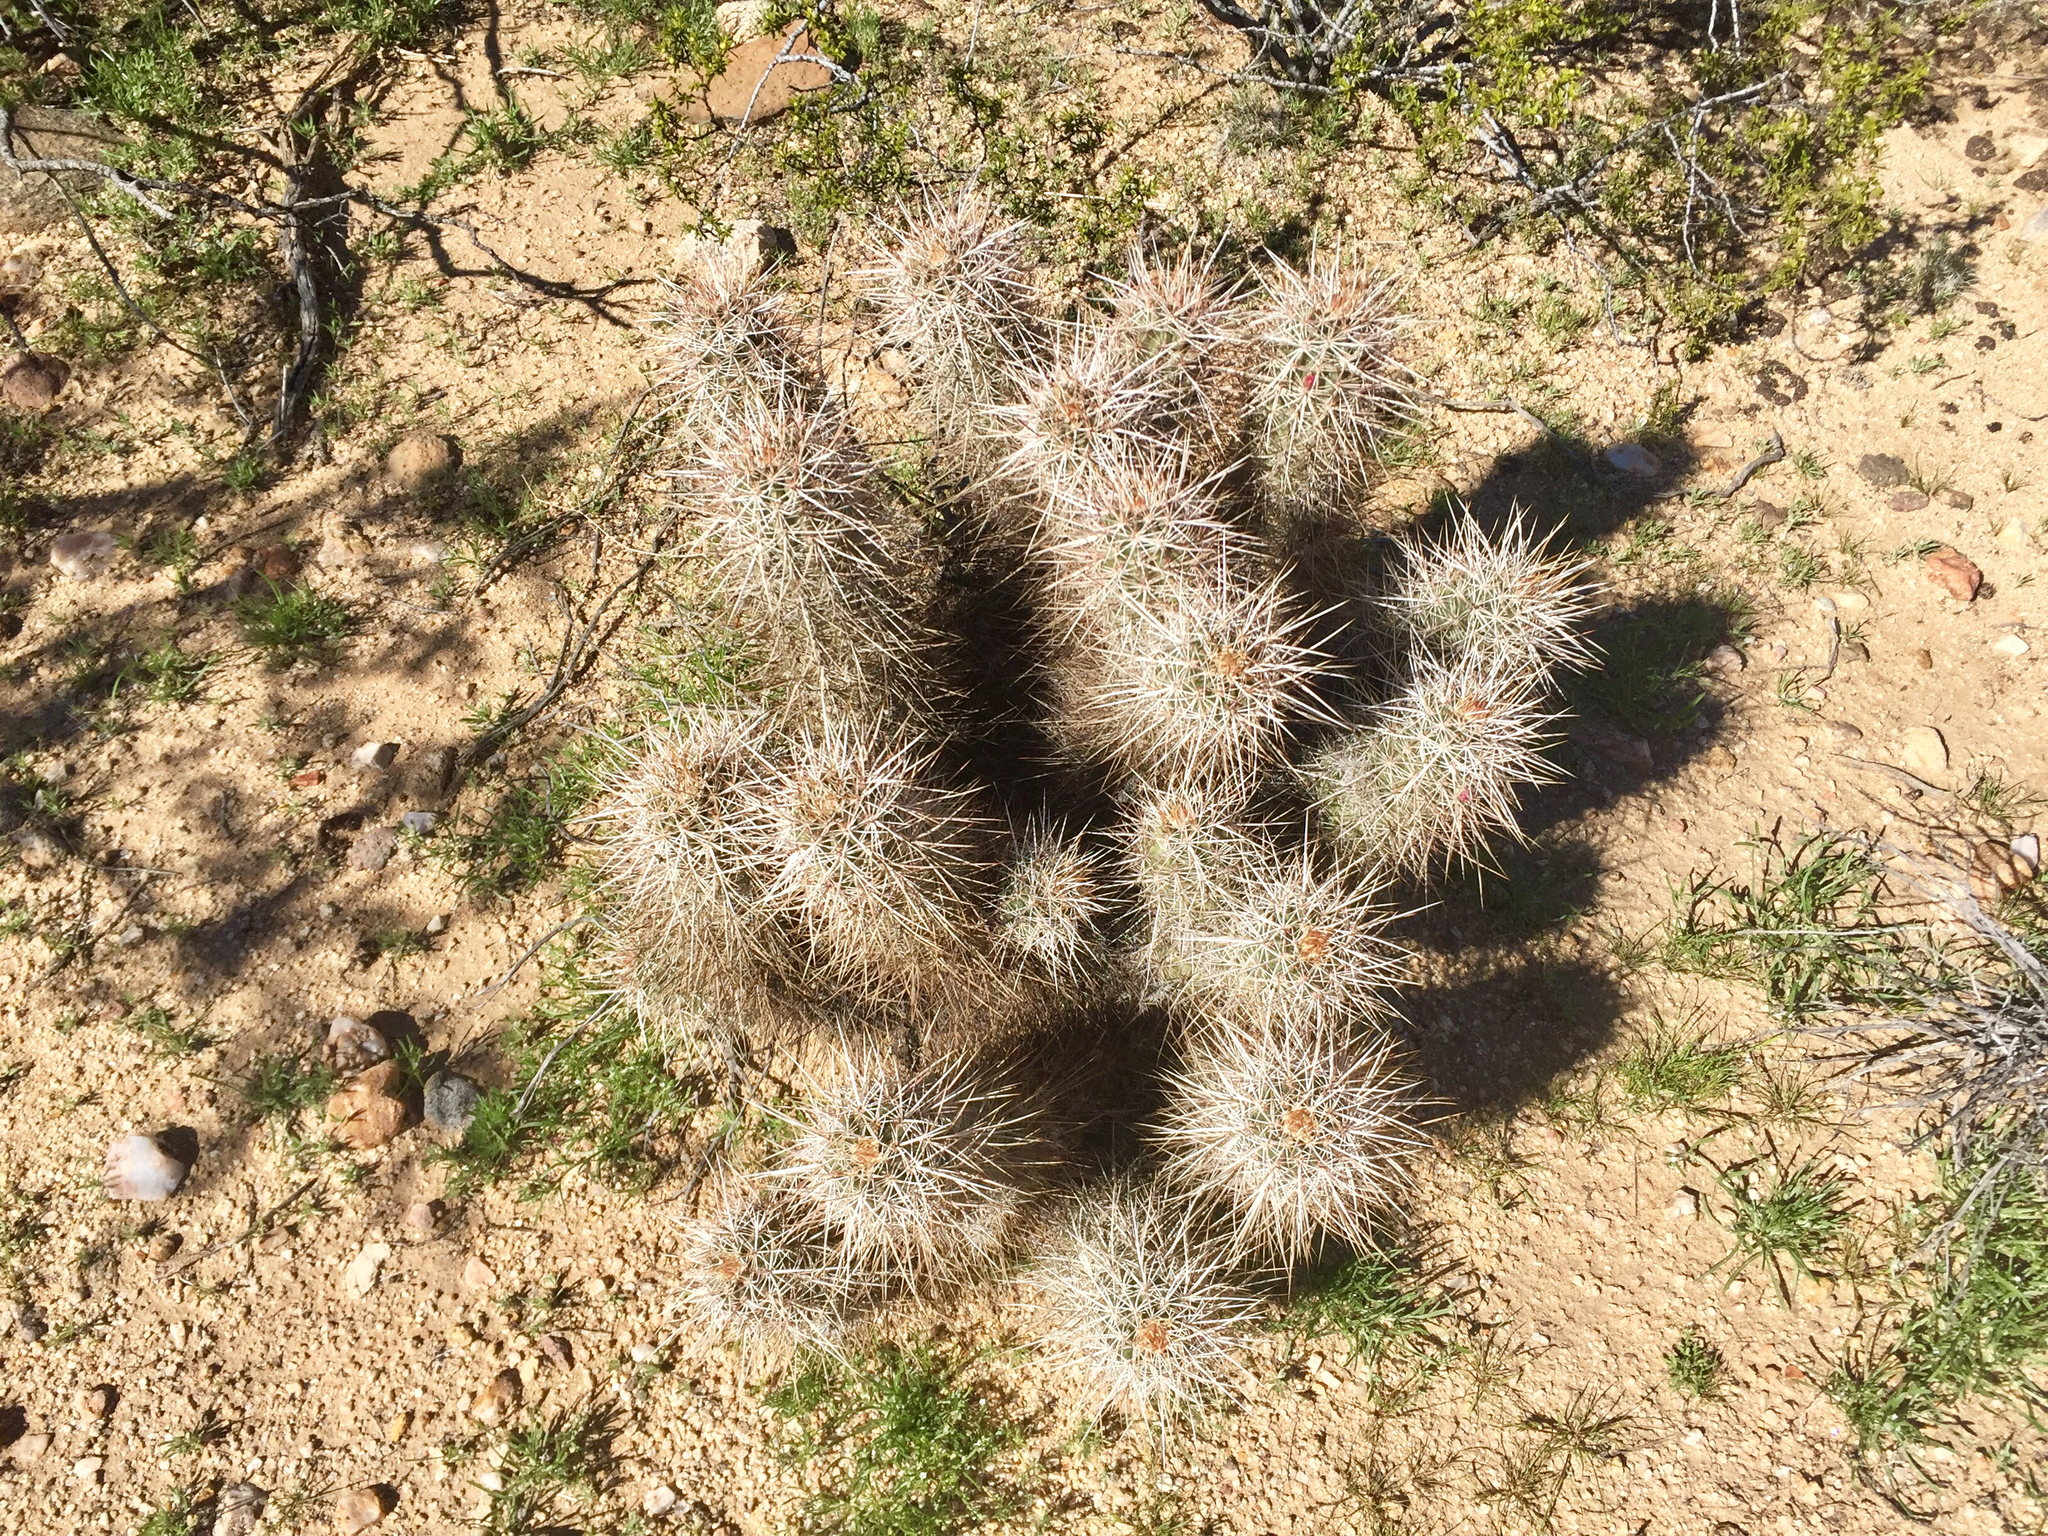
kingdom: Plantae
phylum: Tracheophyta
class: Magnoliopsida
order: Caryophyllales
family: Cactaceae
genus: Echinocereus
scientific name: Echinocereus engelmannii
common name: Engelmann's hedgehog cactus
